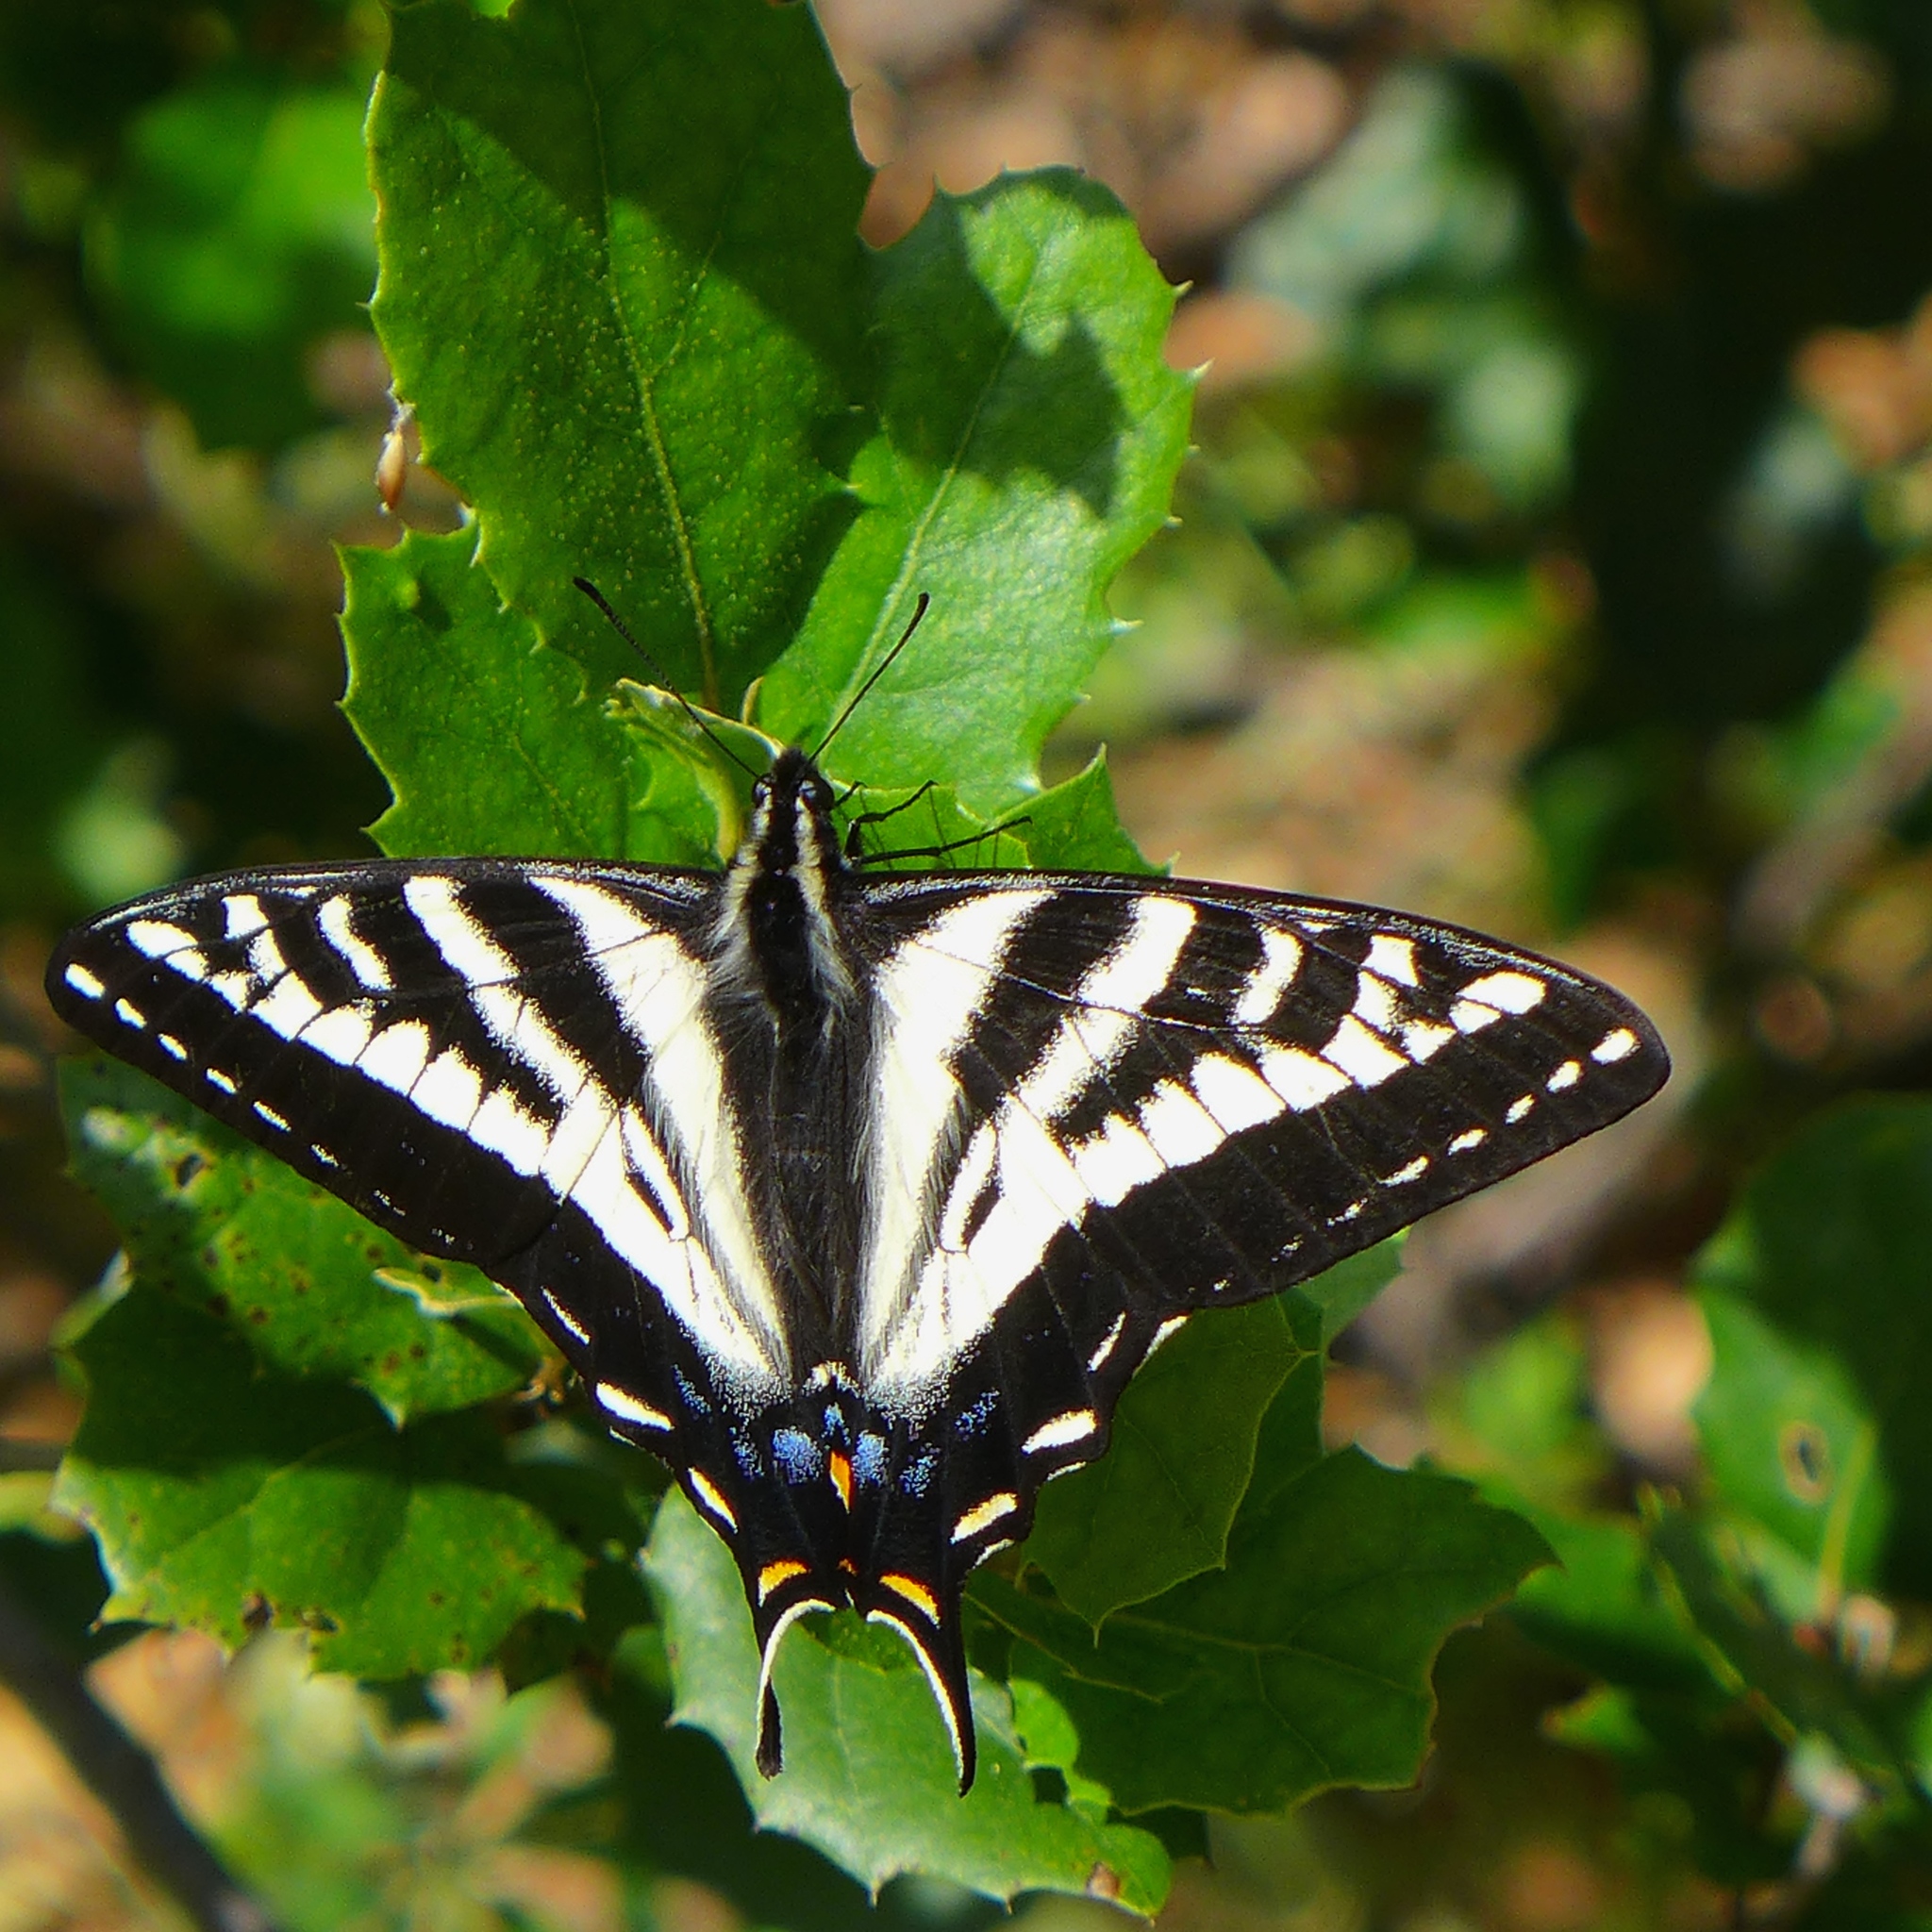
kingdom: Animalia
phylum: Arthropoda
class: Insecta
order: Lepidoptera
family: Papilionidae
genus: Papilio
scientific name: Papilio eurymedon
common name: Pale tiger swallowtail
